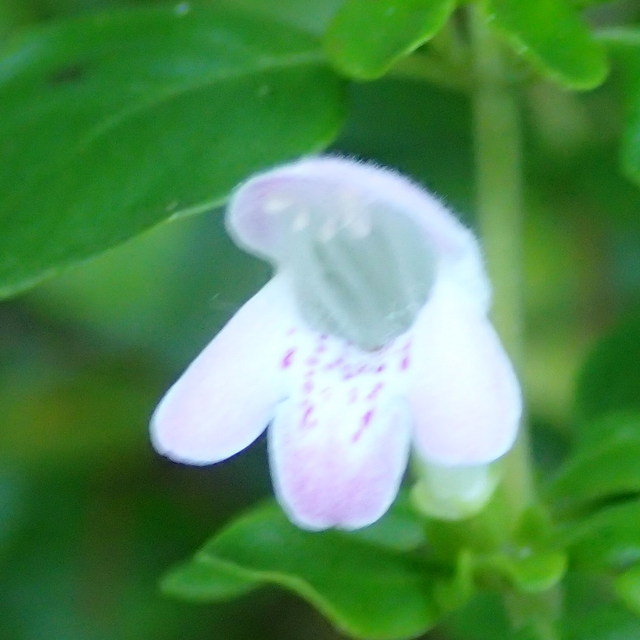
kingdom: Plantae
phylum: Tracheophyta
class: Magnoliopsida
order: Lamiales
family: Lamiaceae
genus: Clinopodium
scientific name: Clinopodium carolinianum
